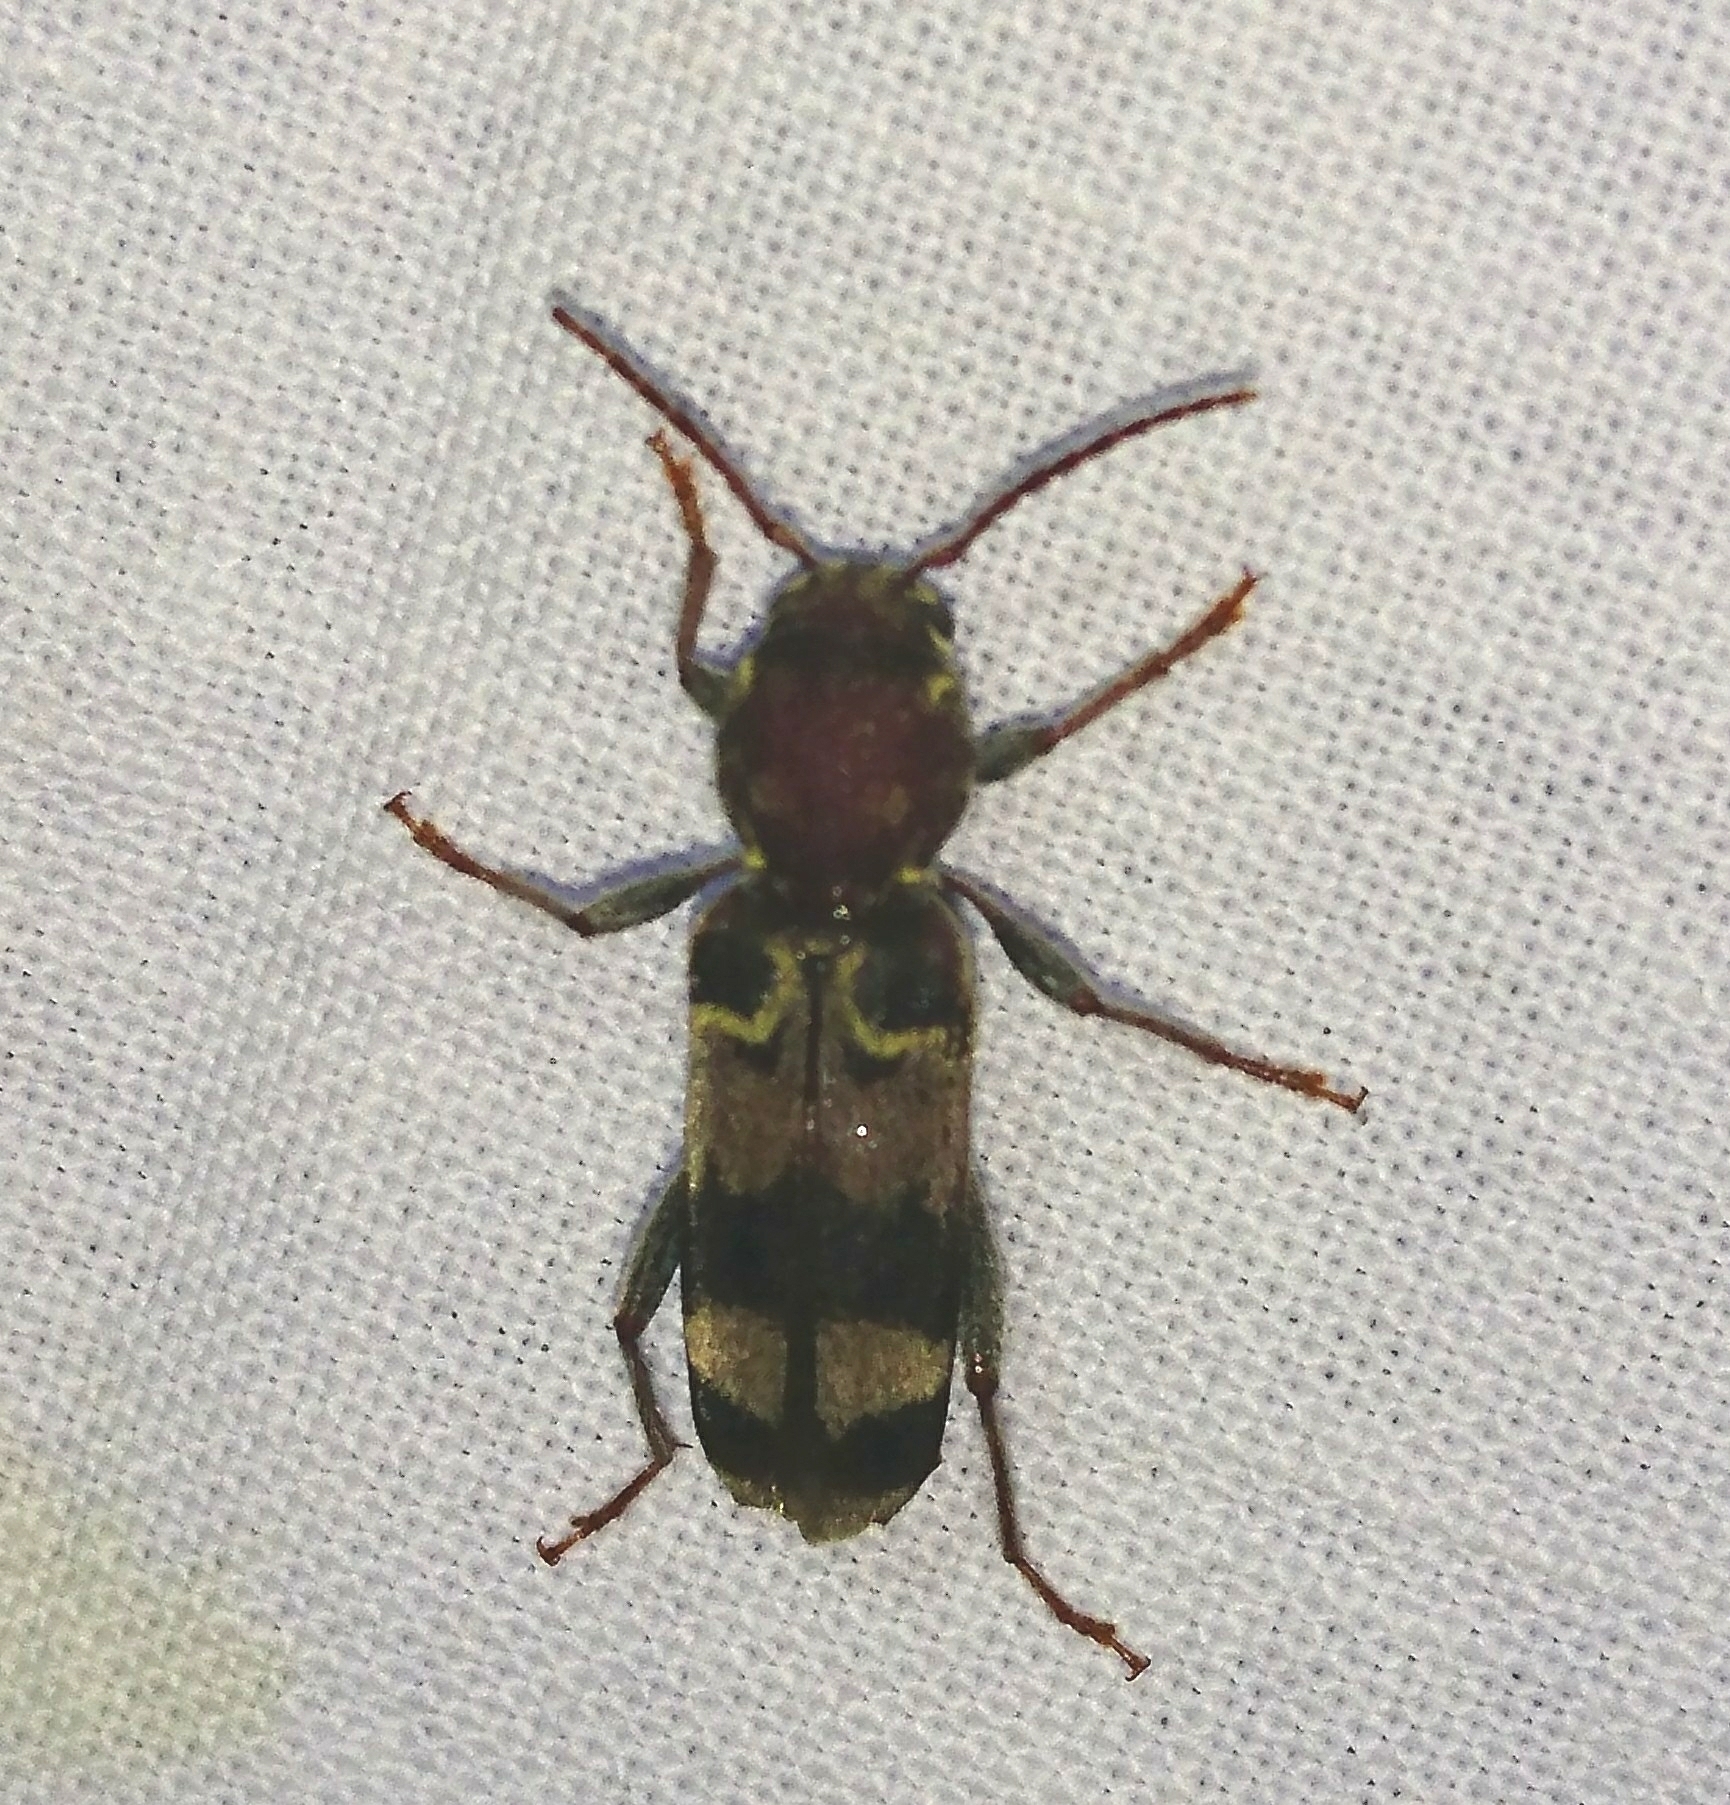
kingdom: Animalia
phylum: Arthropoda
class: Insecta
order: Coleoptera
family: Cerambycidae
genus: Xylotrechus
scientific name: Xylotrechus colonus
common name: Long-horned beetle
